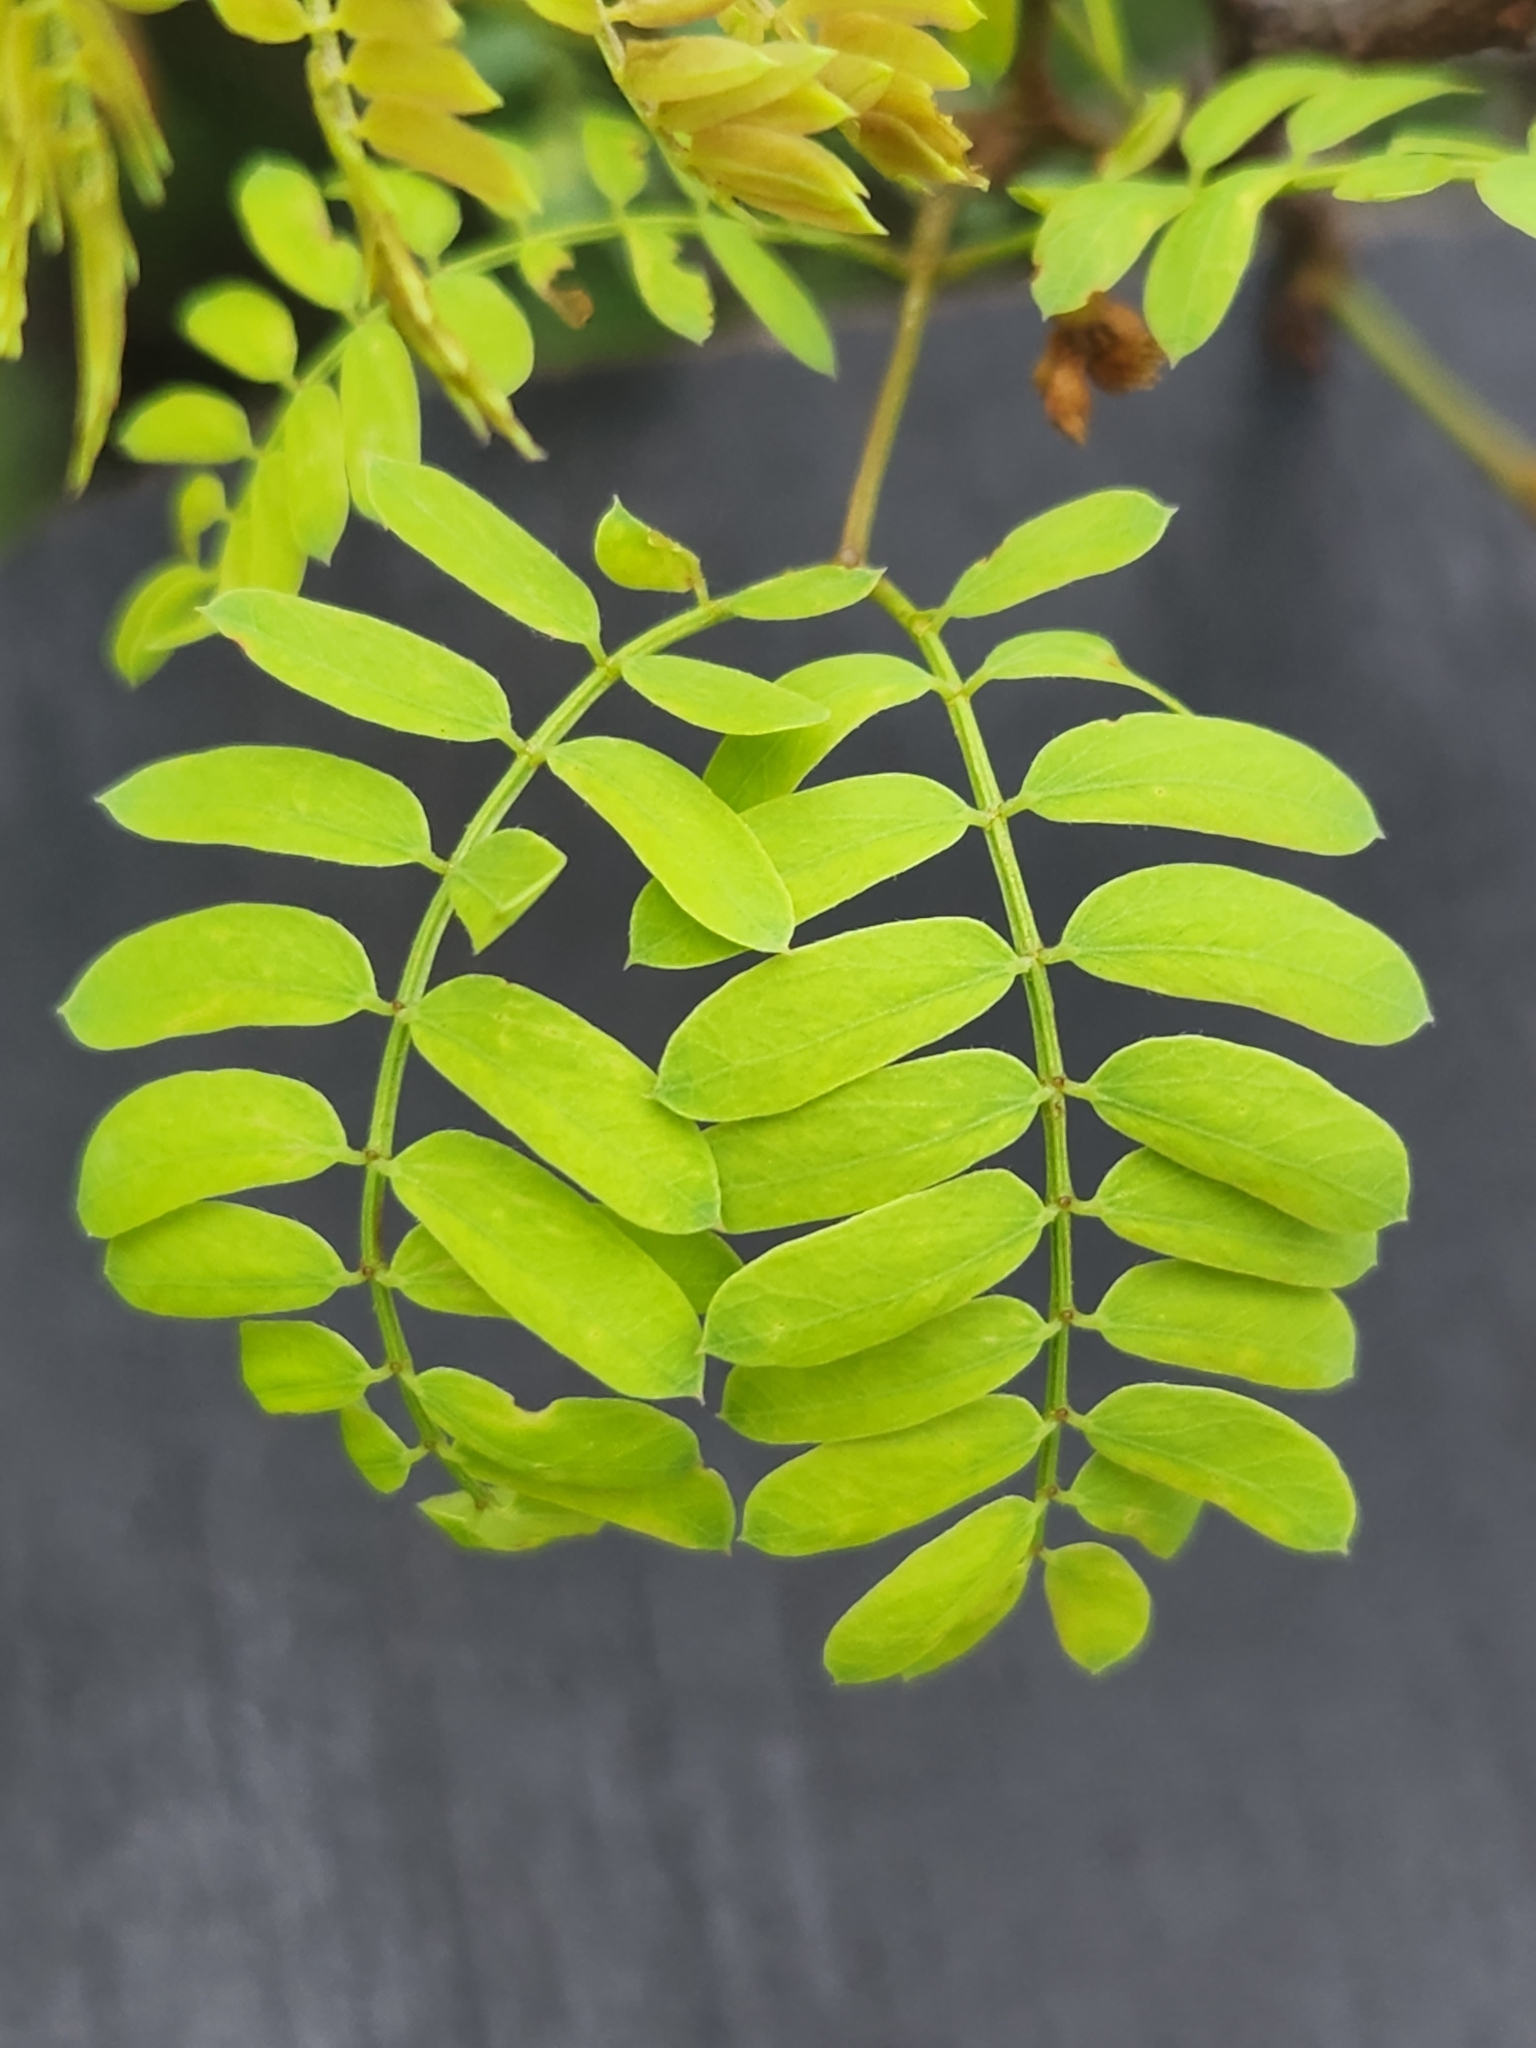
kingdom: Plantae
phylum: Tracheophyta
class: Magnoliopsida
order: Fabales
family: Fabaceae
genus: Senegalia
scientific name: Senegalia roemeriana
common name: Roemer's acacia
